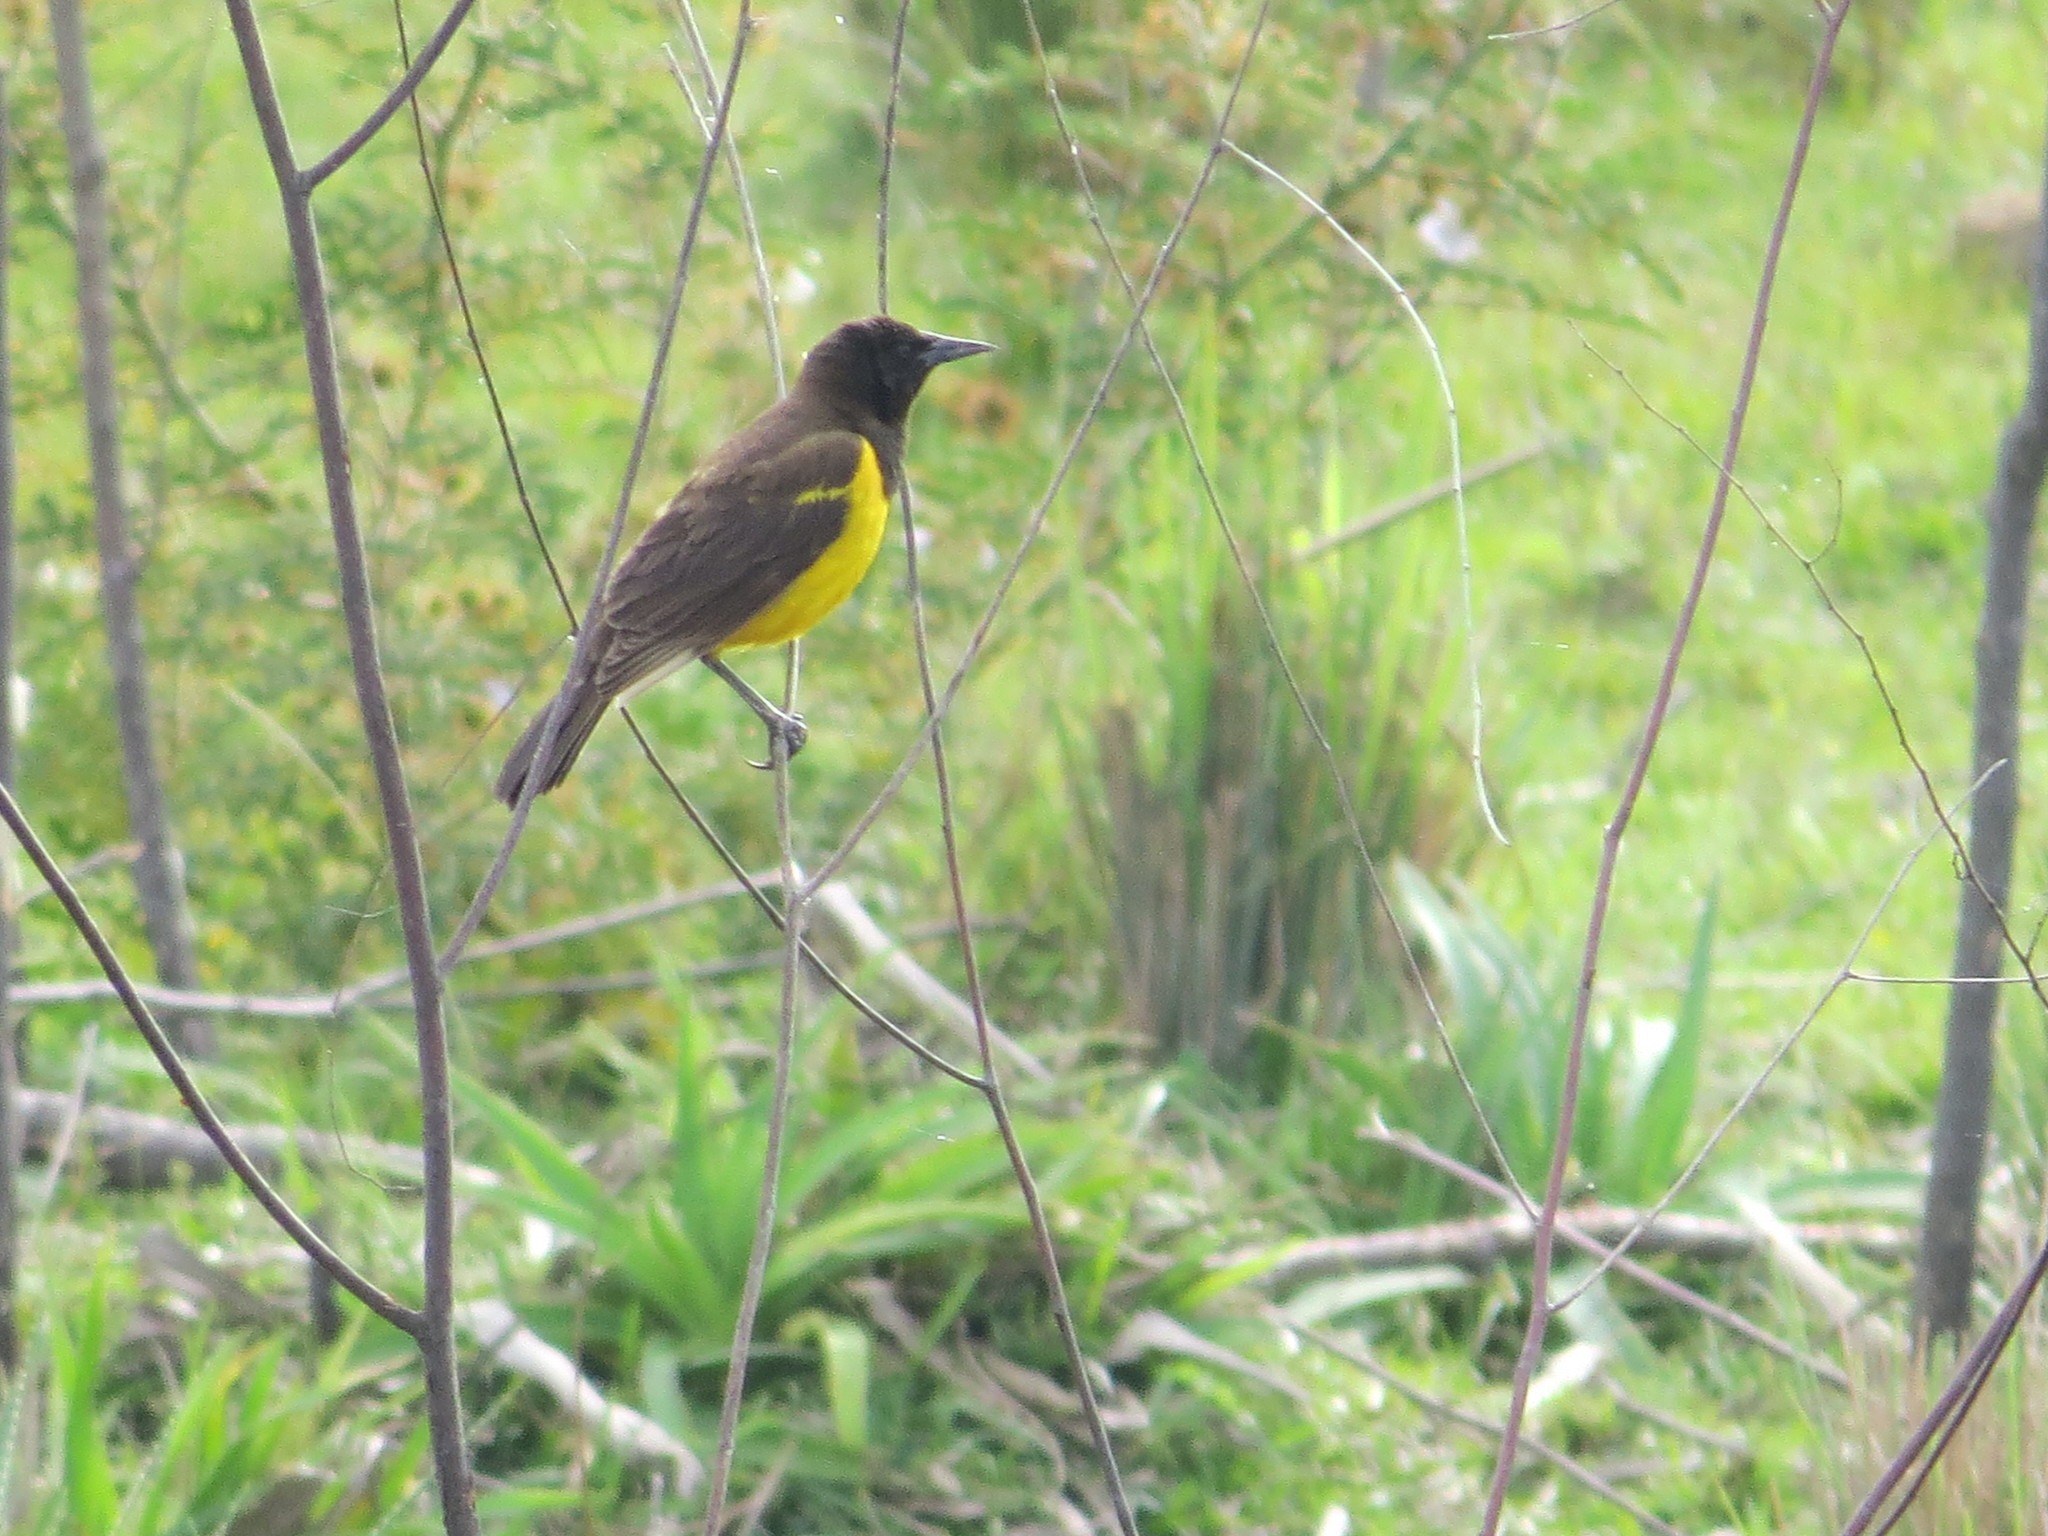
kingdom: Animalia
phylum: Chordata
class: Aves
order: Passeriformes
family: Icteridae
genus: Pseudoleistes
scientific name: Pseudoleistes virescens
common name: Brown-and-yellow marshbird
